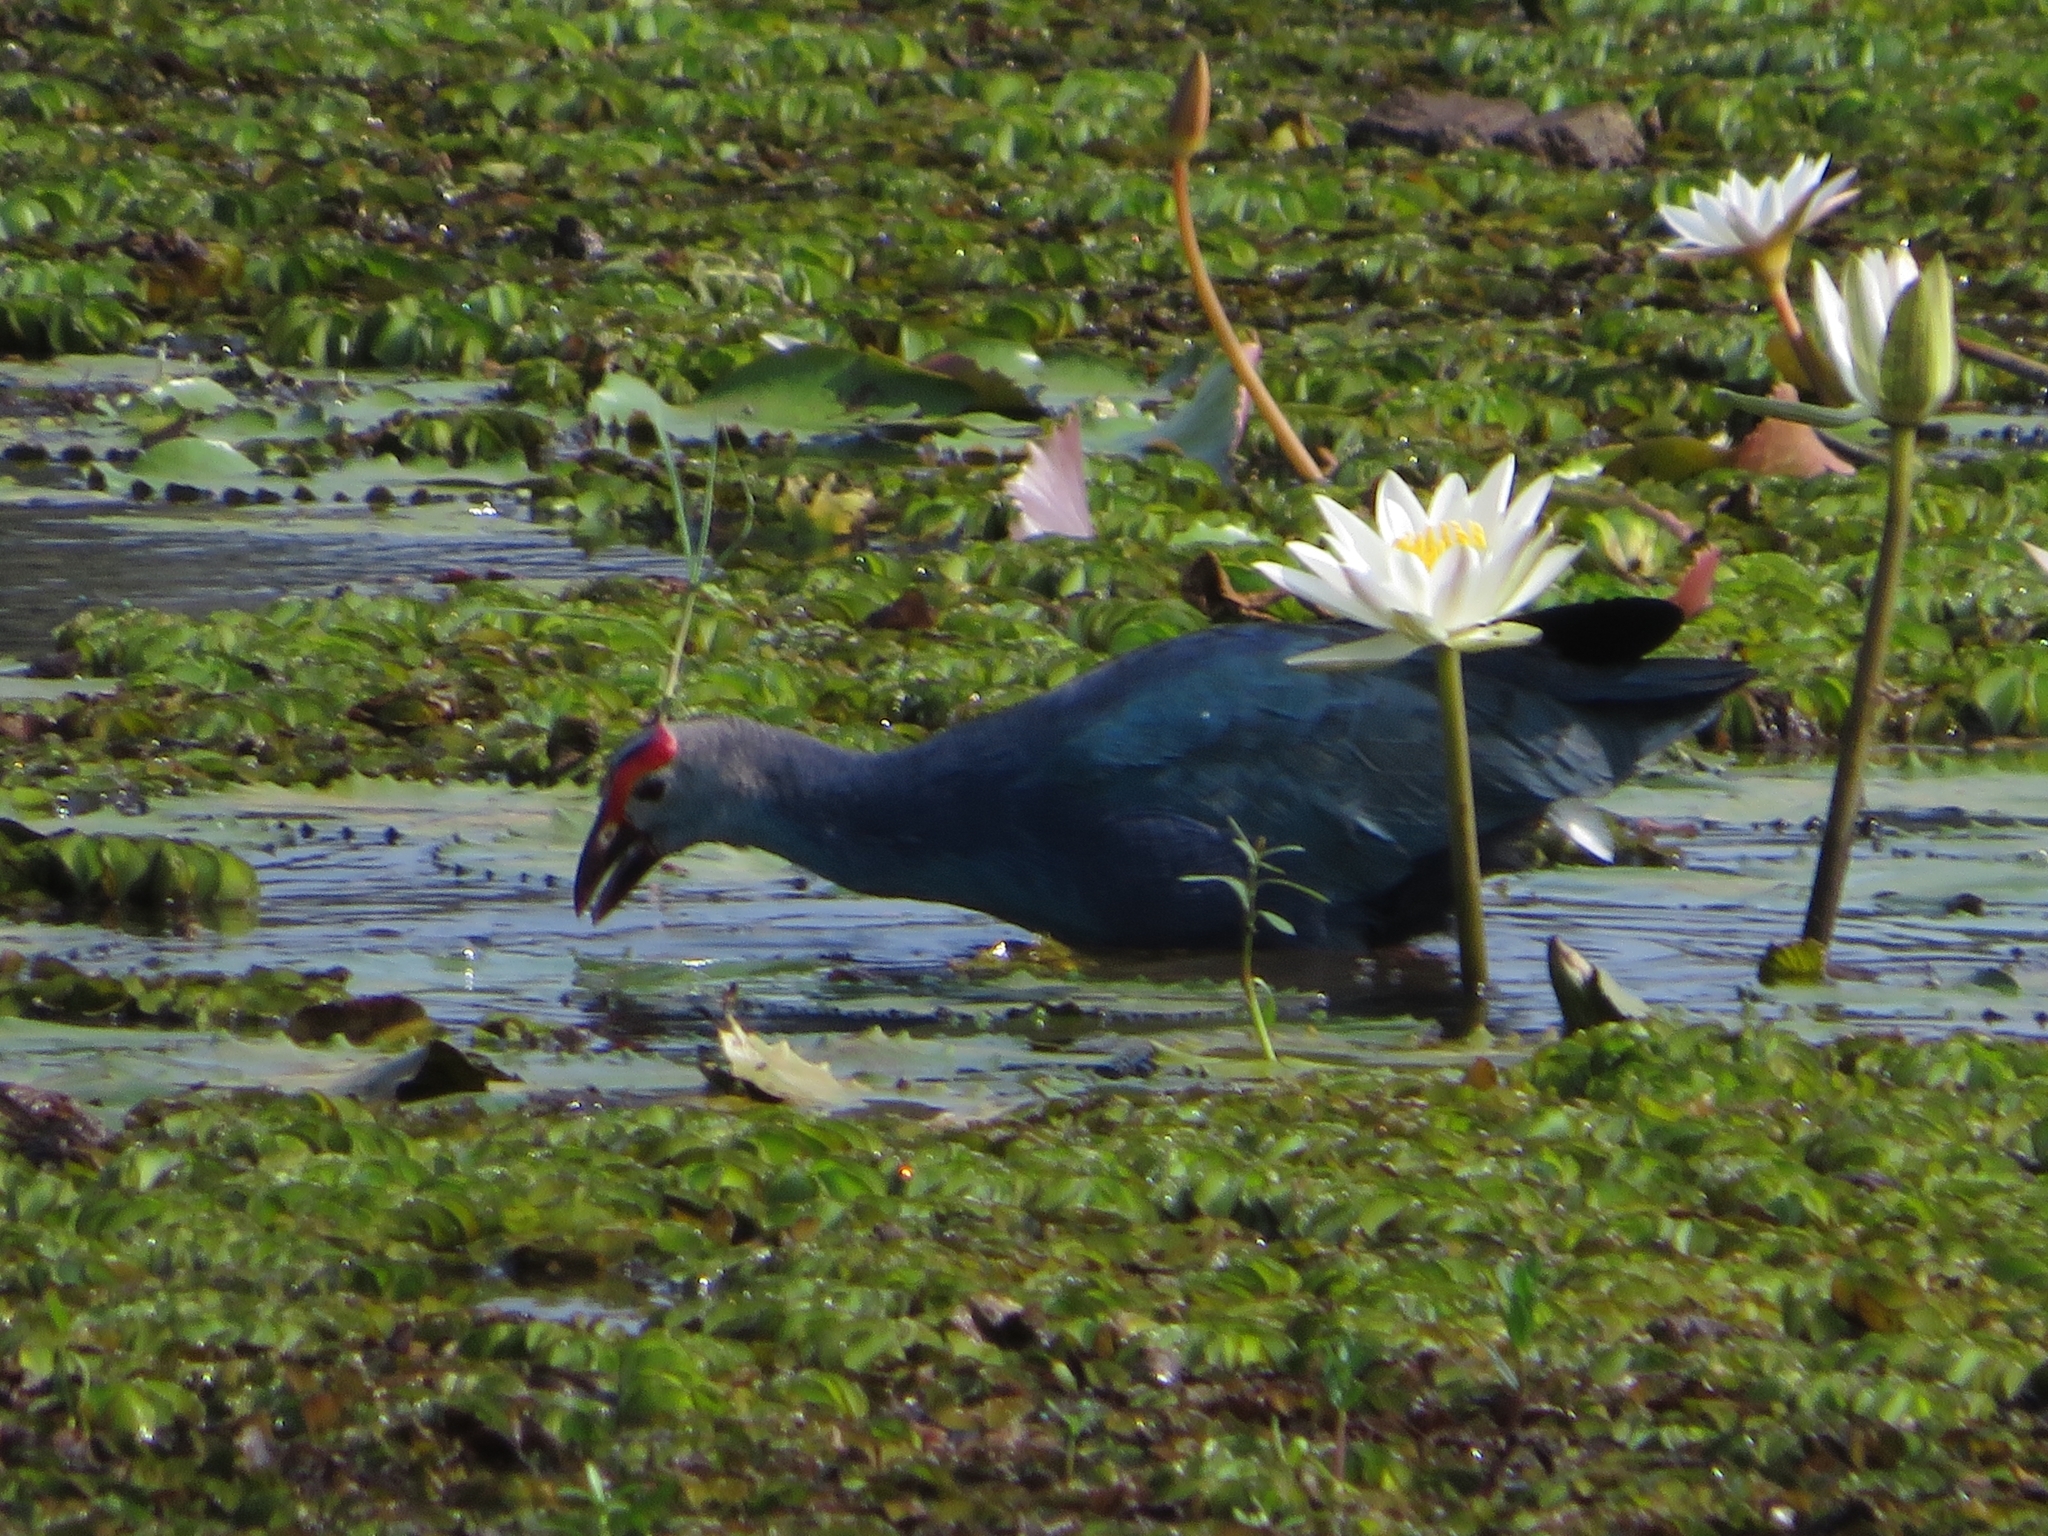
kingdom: Animalia
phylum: Chordata
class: Aves
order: Gruiformes
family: Rallidae
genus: Porphyrio
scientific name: Porphyrio porphyrio
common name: Purple swamphen
